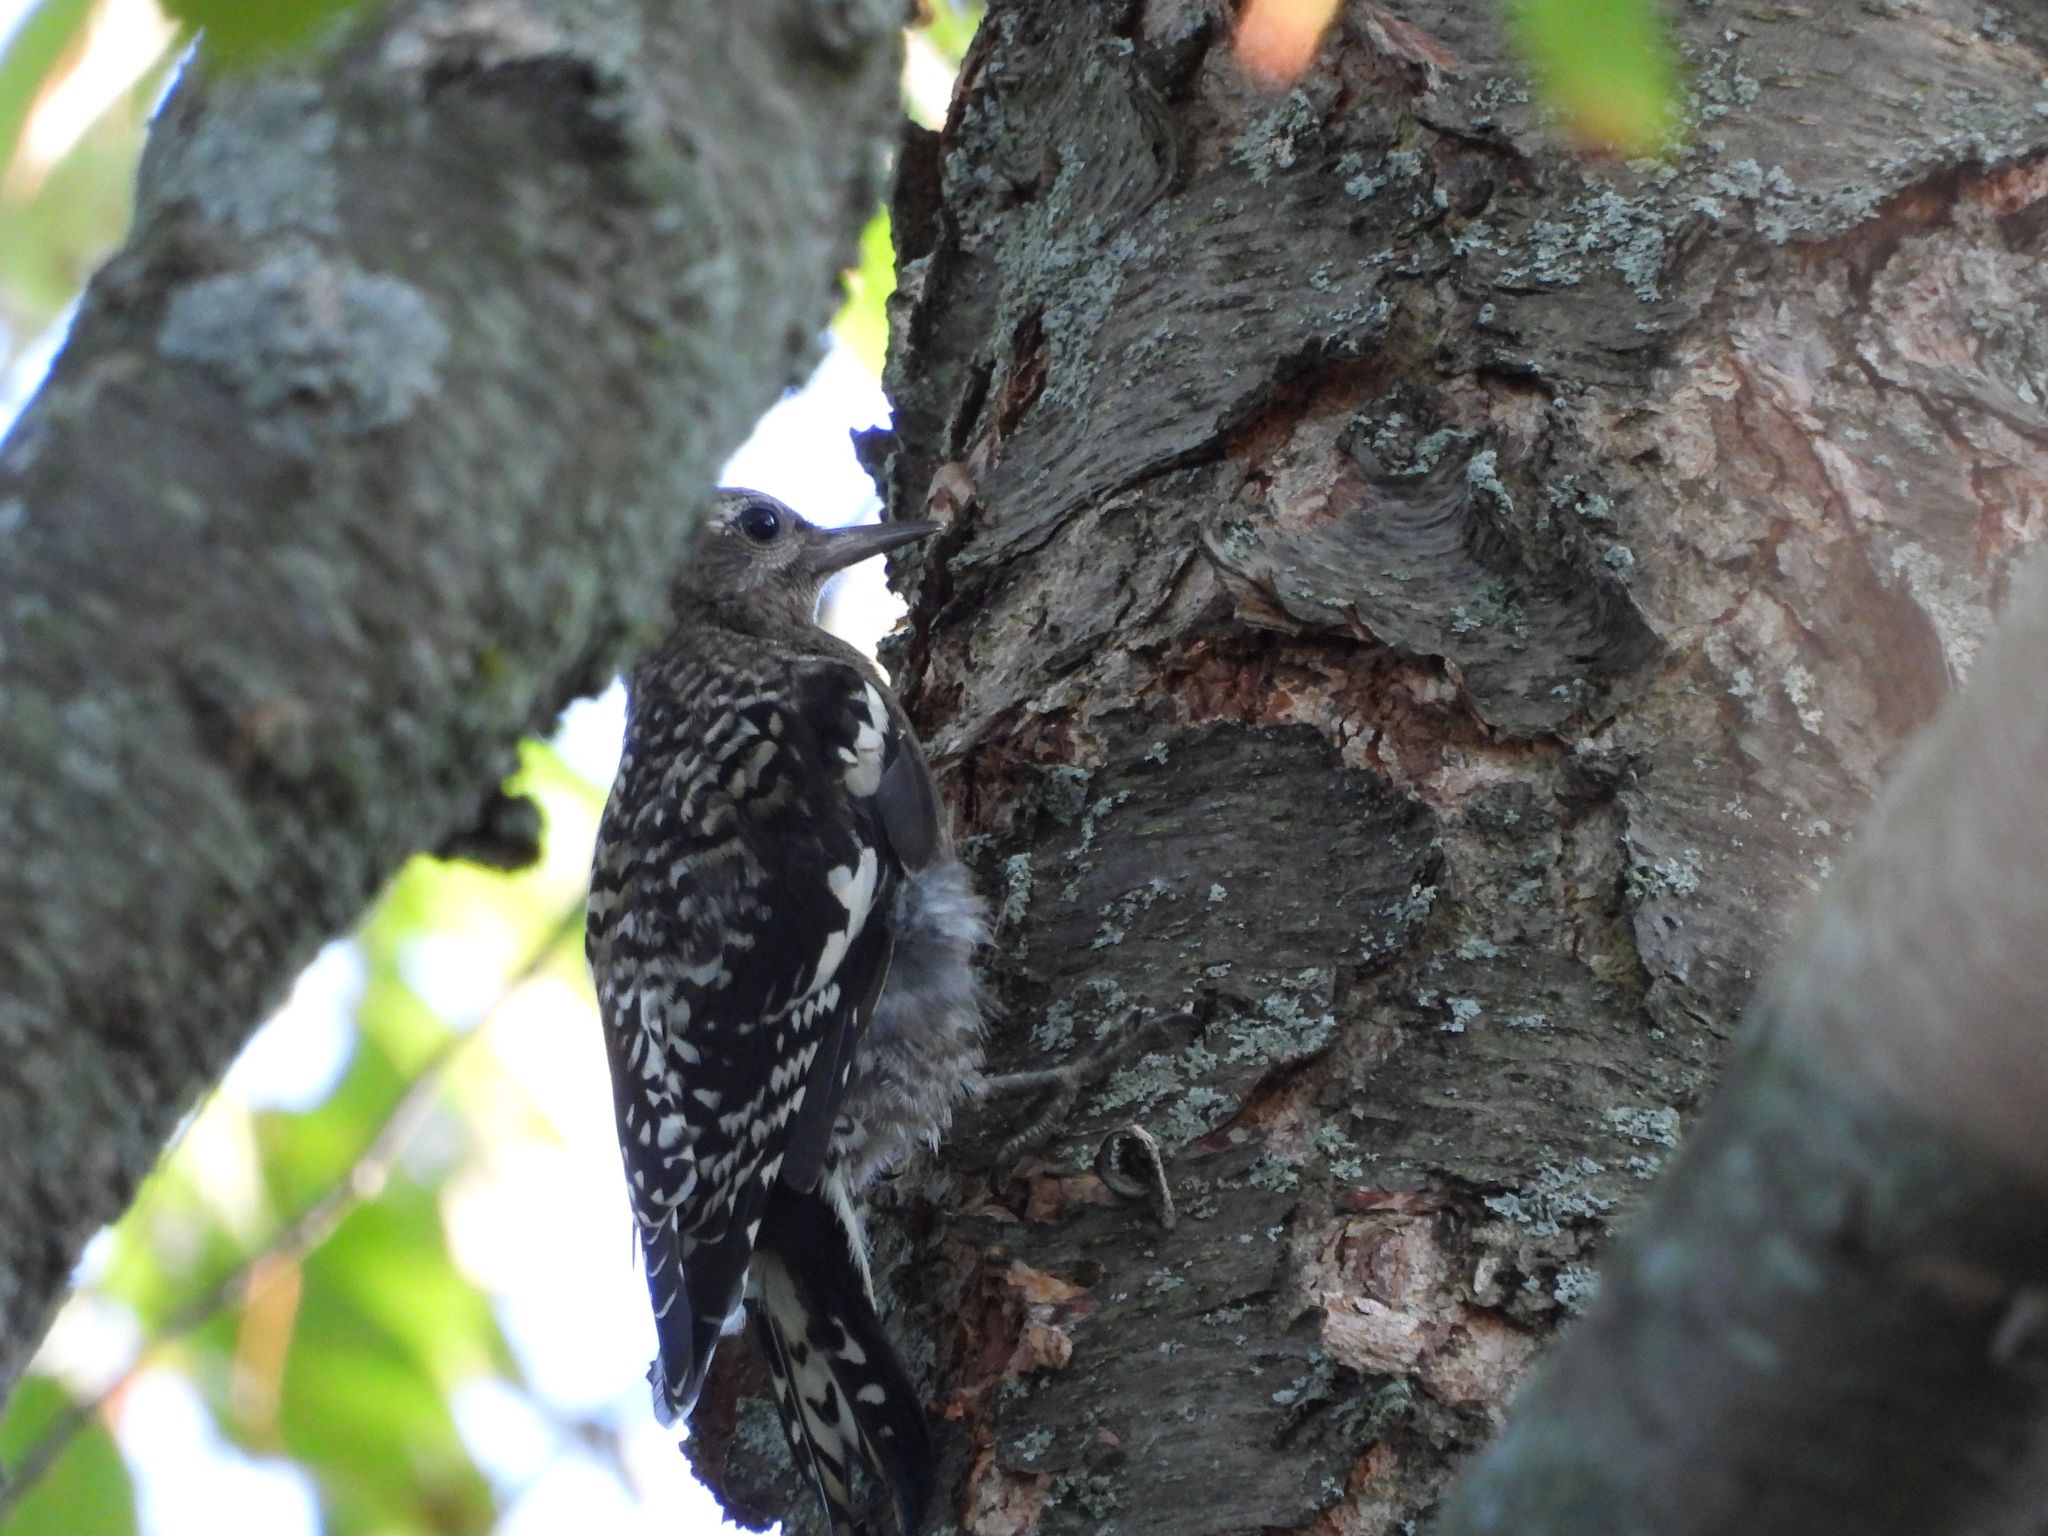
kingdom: Animalia
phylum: Chordata
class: Aves
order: Piciformes
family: Picidae
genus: Sphyrapicus
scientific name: Sphyrapicus varius
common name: Yellow-bellied sapsucker
